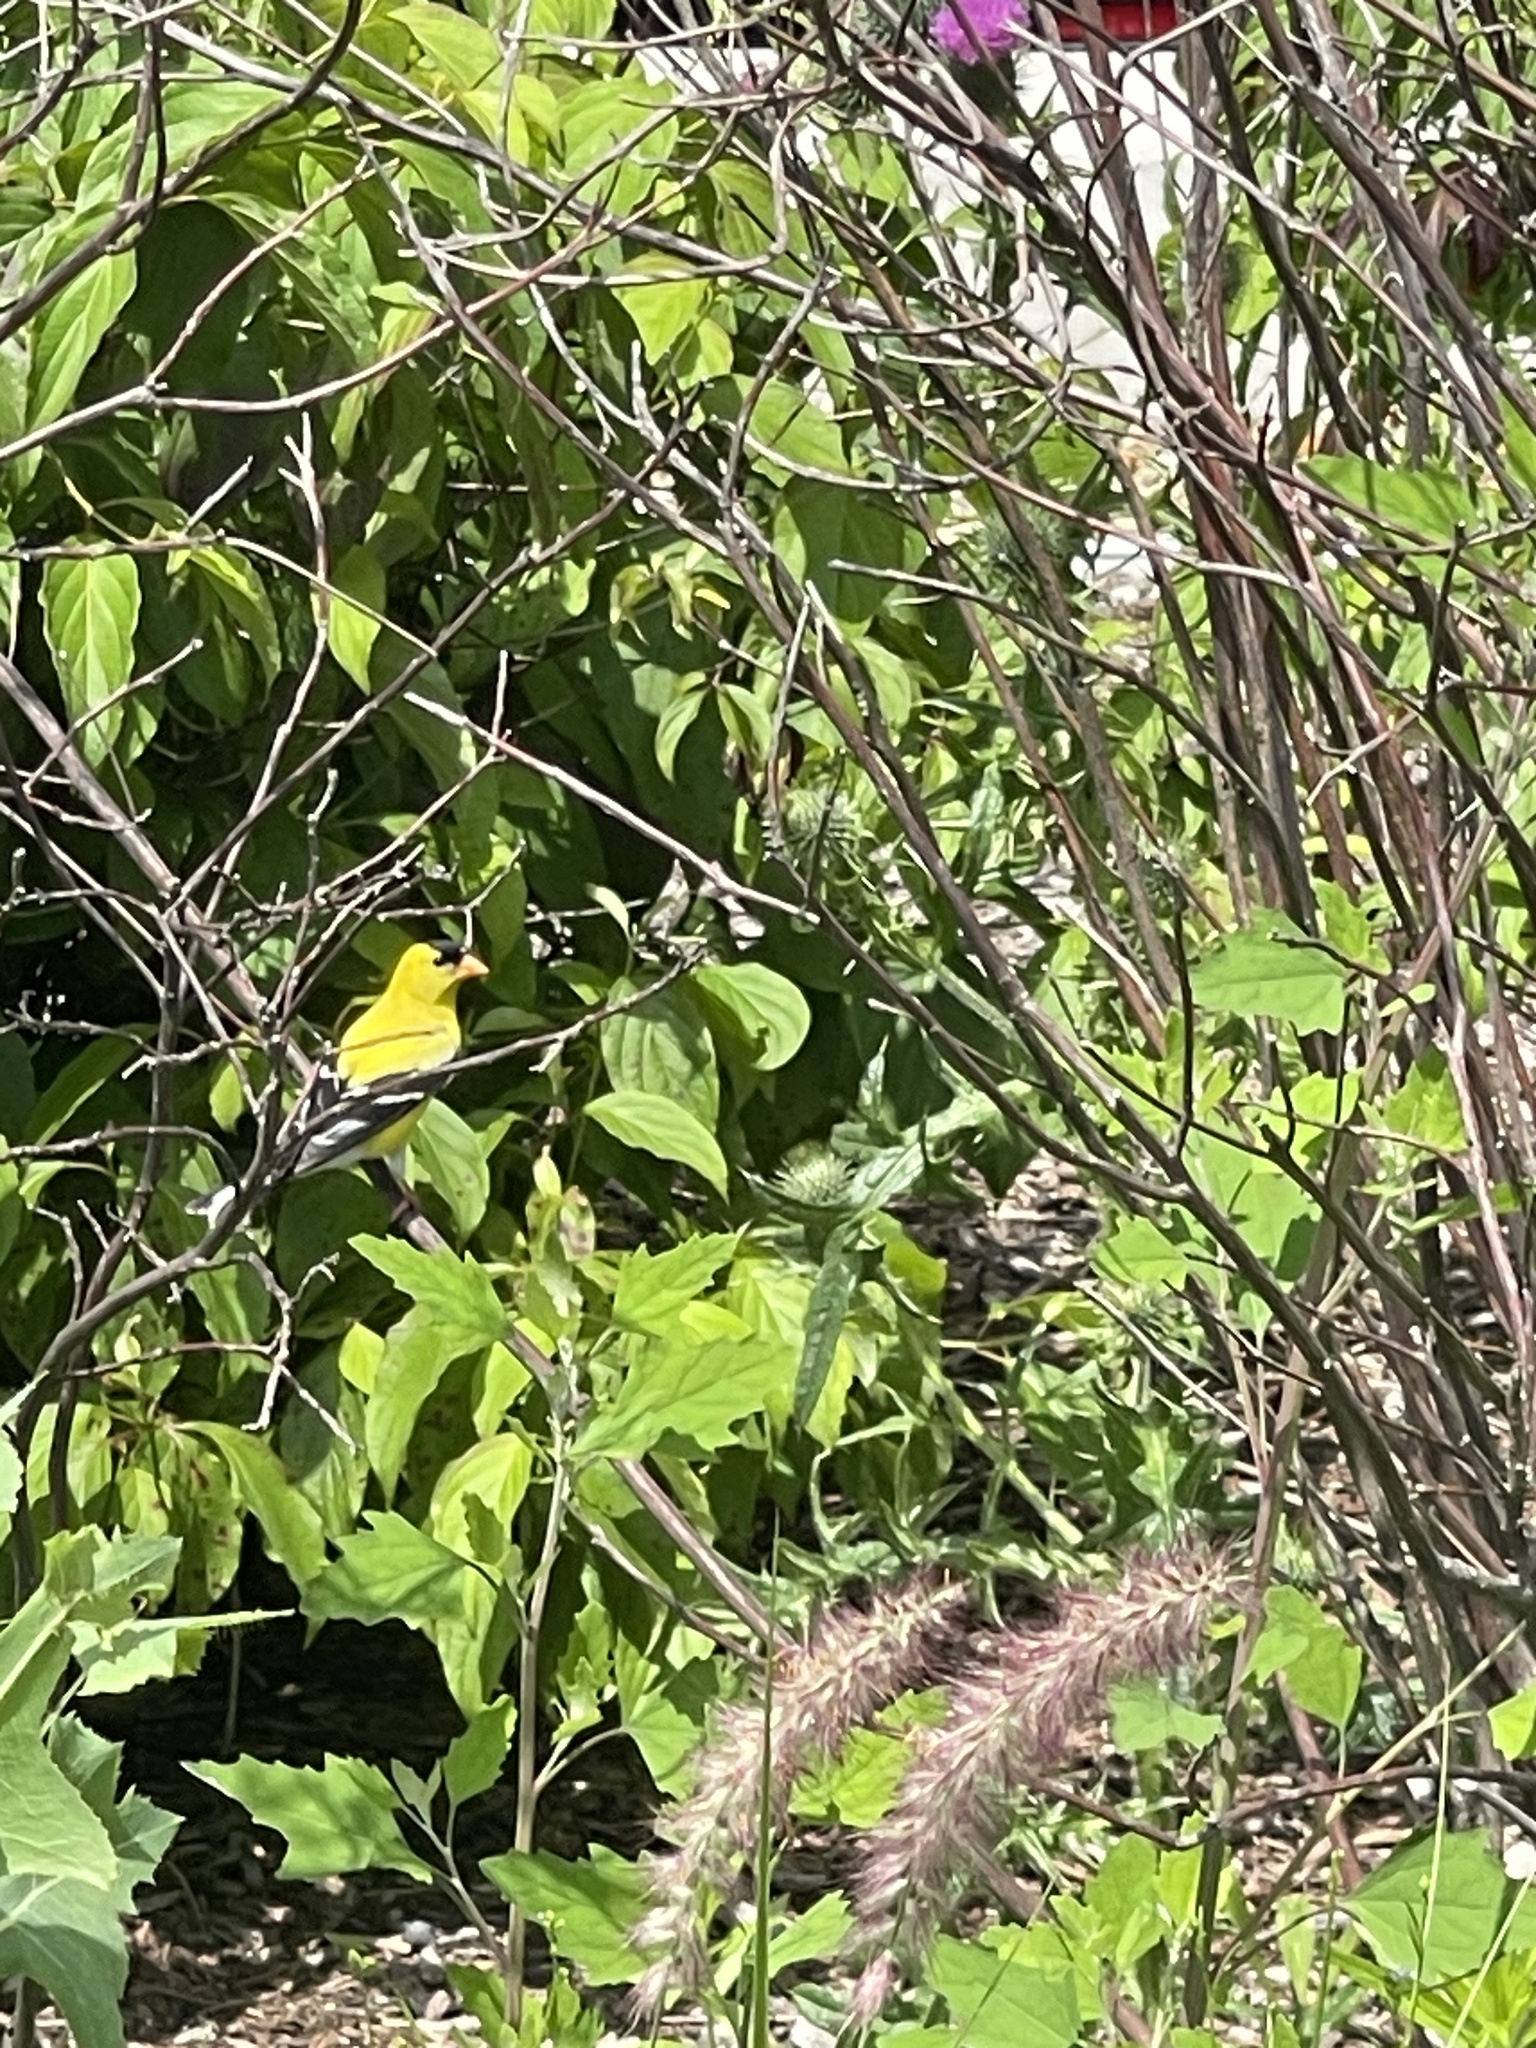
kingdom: Animalia
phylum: Chordata
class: Aves
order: Passeriformes
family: Fringillidae
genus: Spinus
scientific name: Spinus tristis
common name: American goldfinch
